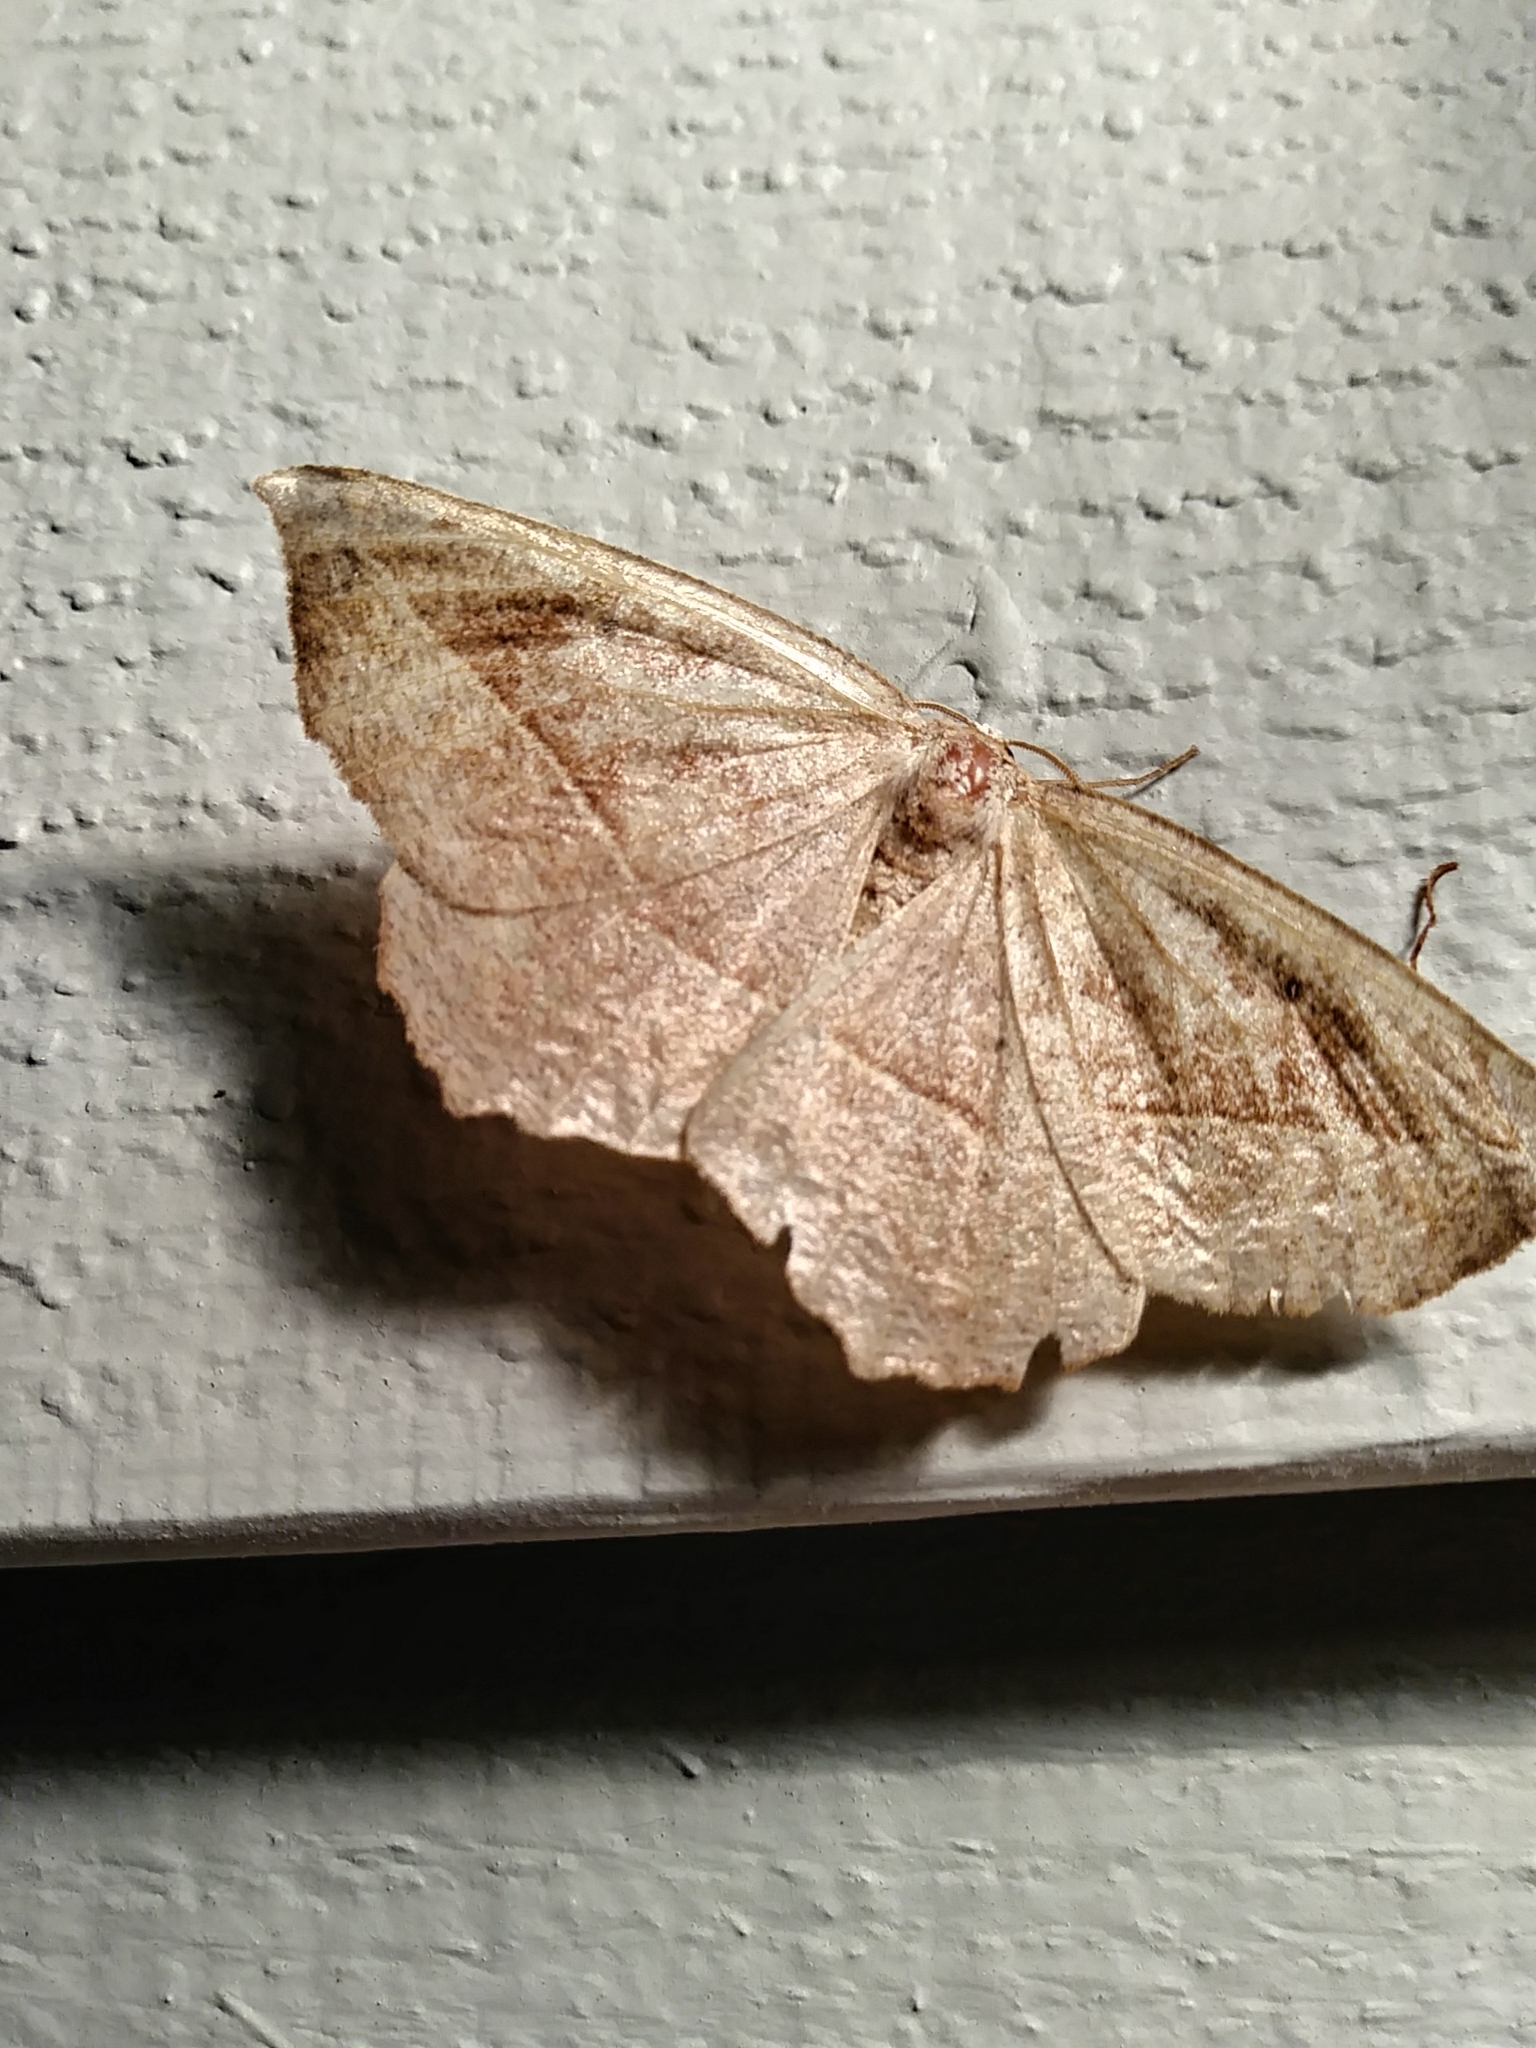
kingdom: Animalia
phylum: Arthropoda
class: Insecta
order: Lepidoptera
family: Geometridae
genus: Eutrapela
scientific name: Eutrapela clemataria
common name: Curved-toothed geometer
